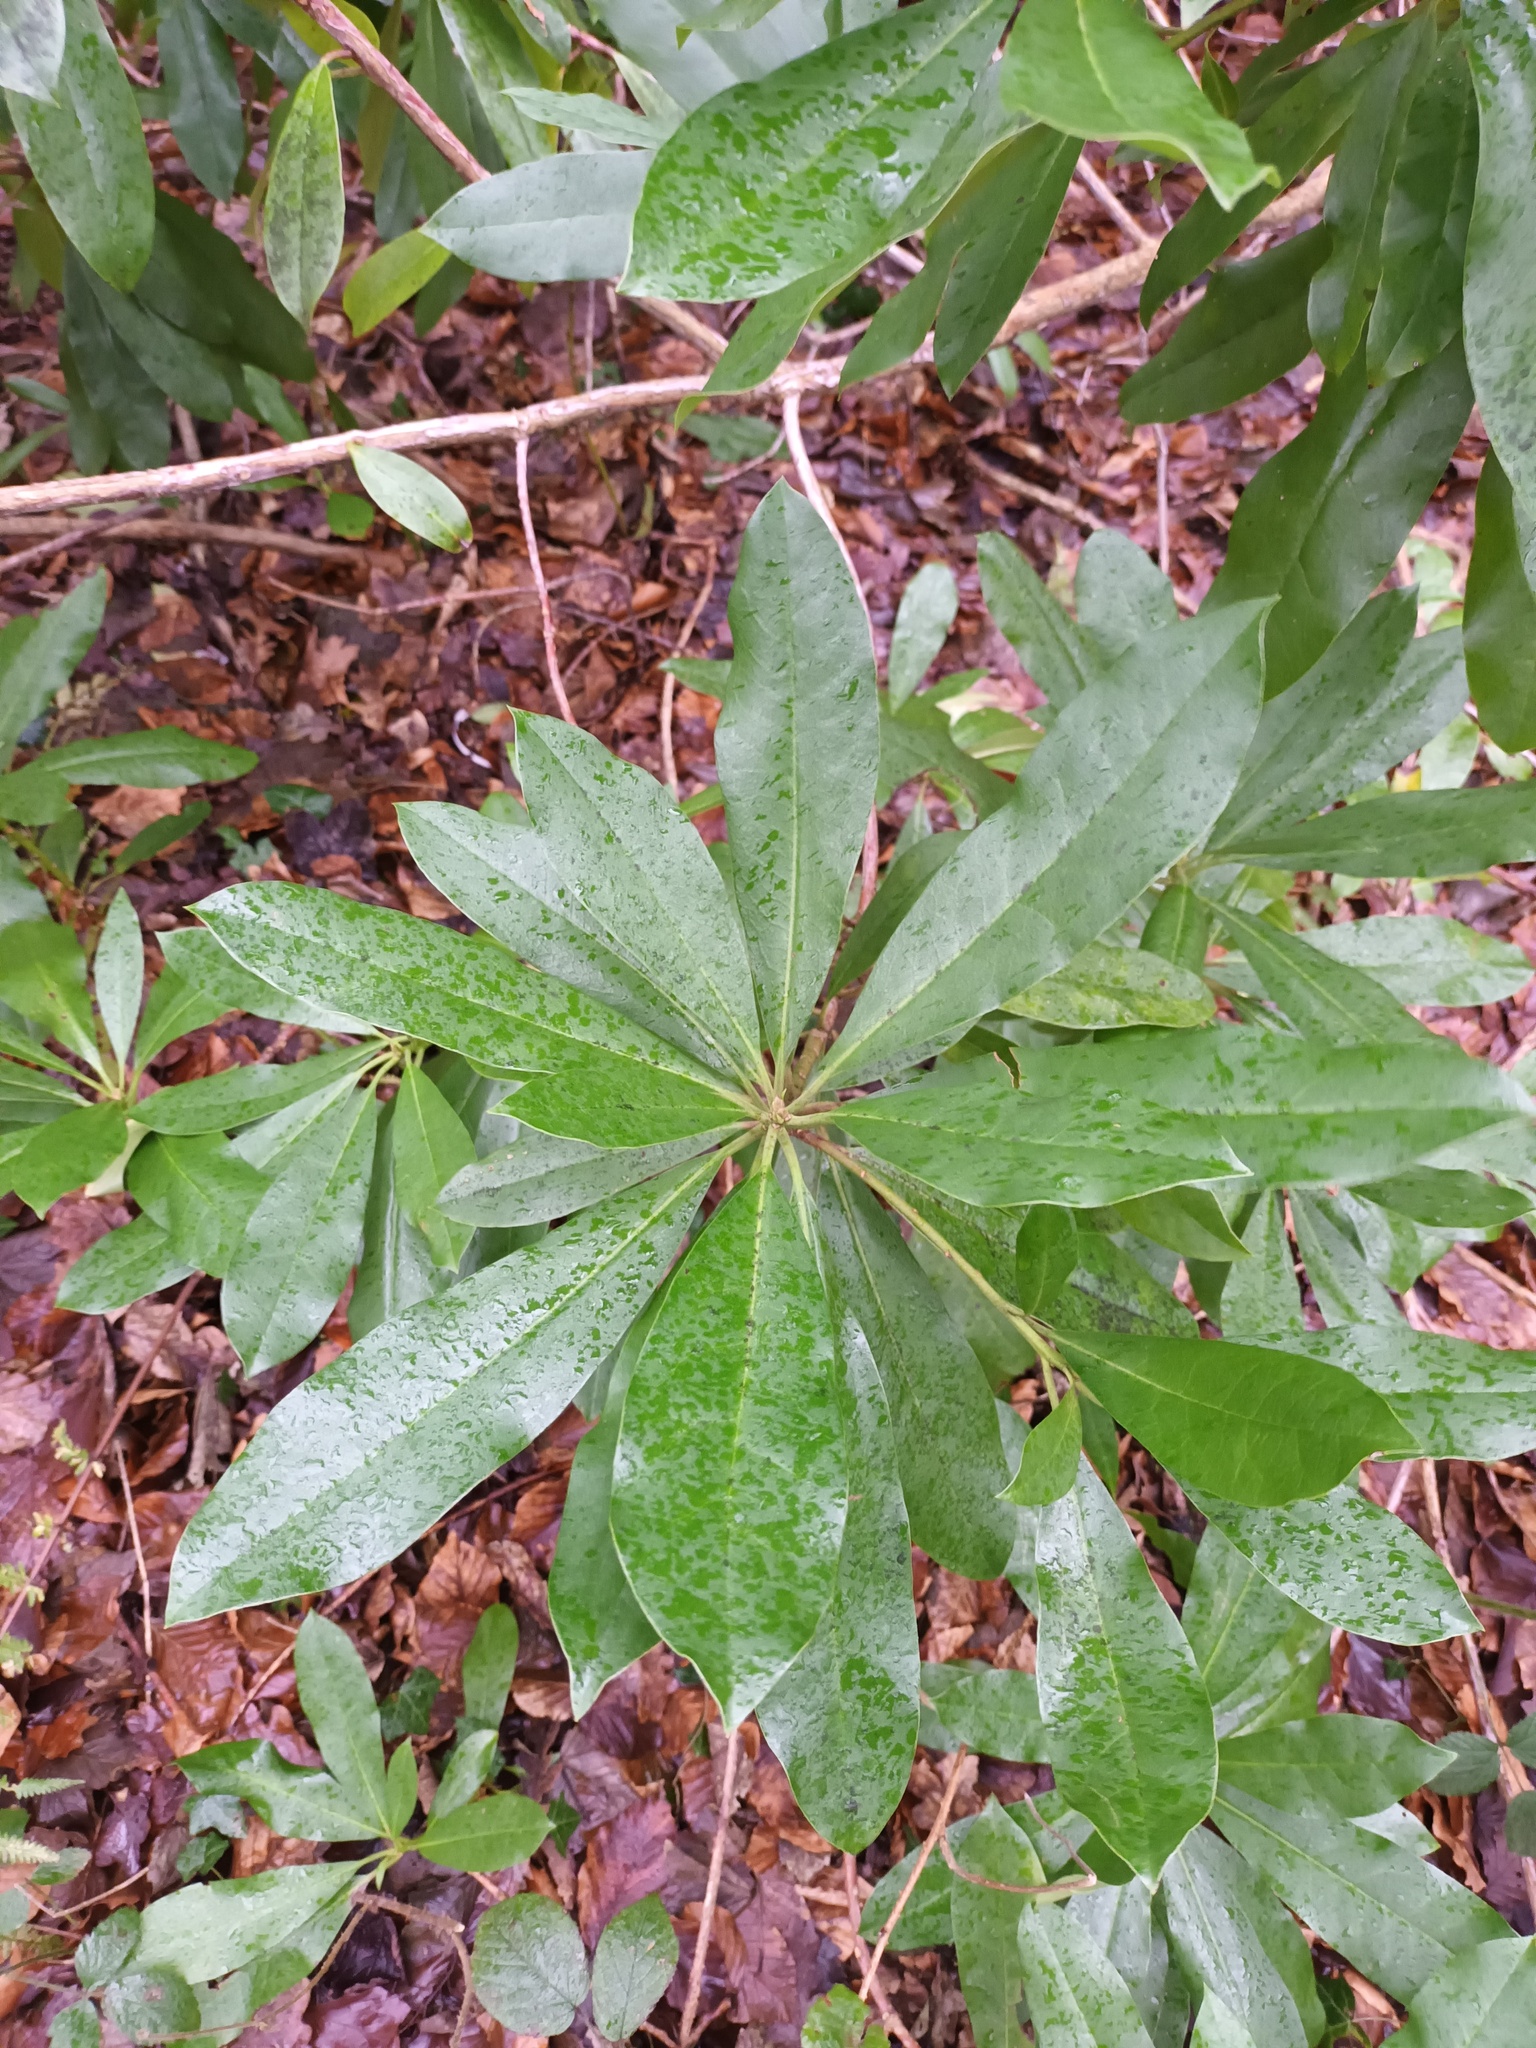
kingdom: Plantae
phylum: Tracheophyta
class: Magnoliopsida
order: Ericales
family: Ericaceae
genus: Rhododendron
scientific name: Rhododendron ponticum
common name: Rhododendron
